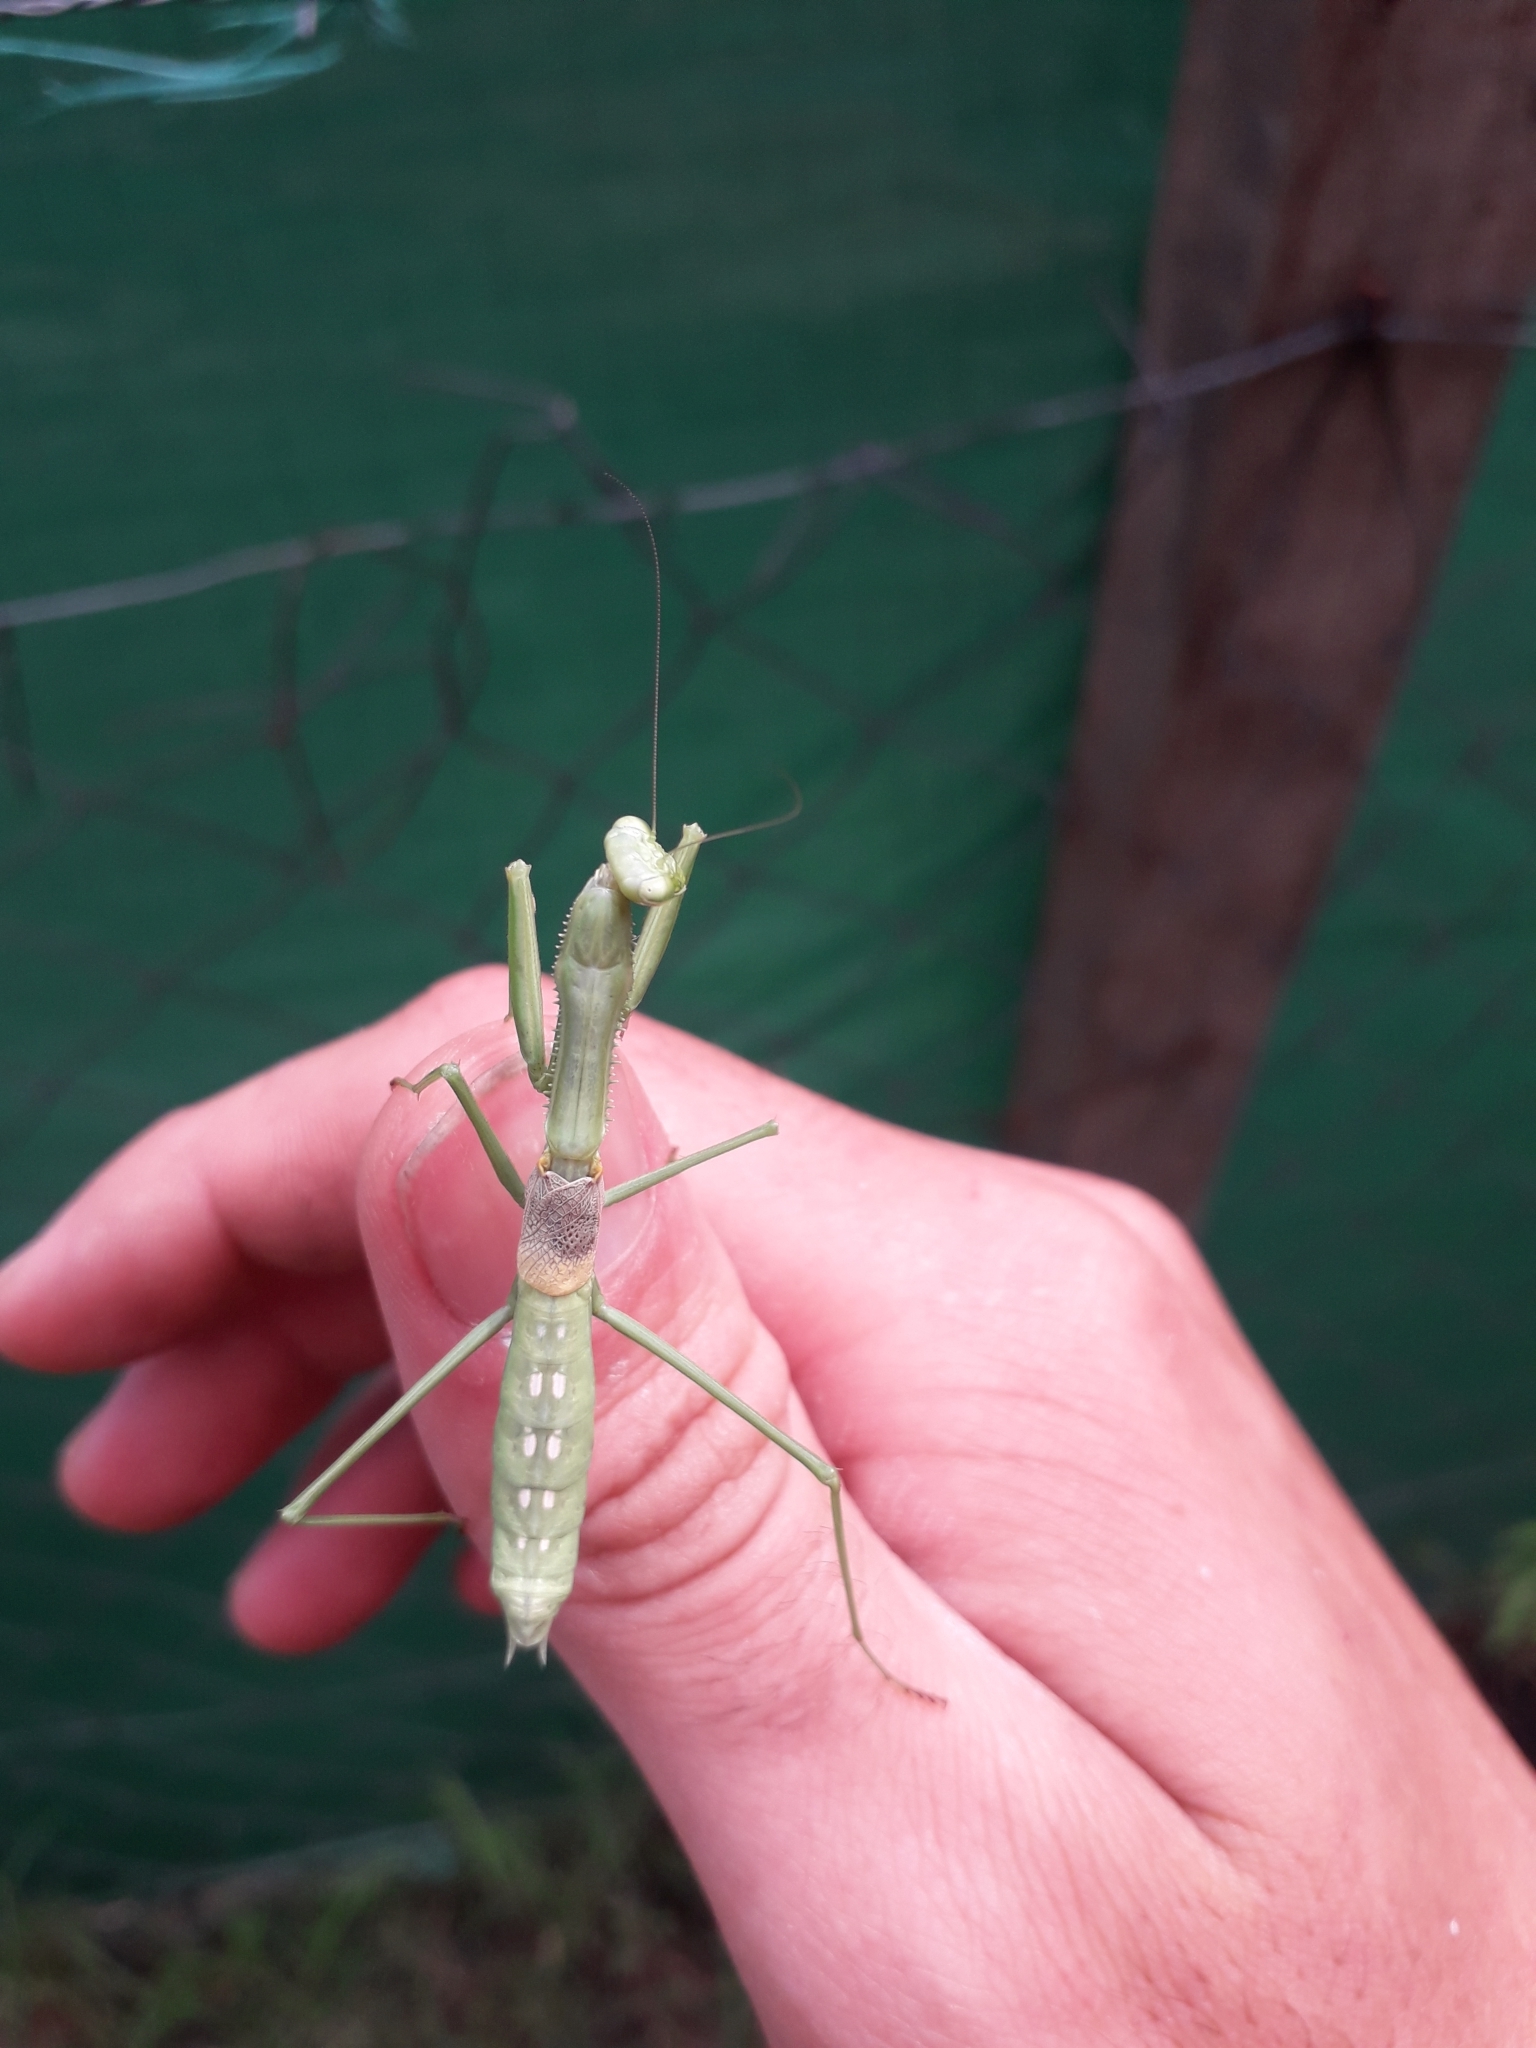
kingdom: Animalia
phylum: Arthropoda
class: Insecta
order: Mantodea
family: Coptopterygidae
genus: Coptopteryx
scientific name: Coptopteryx gayi
